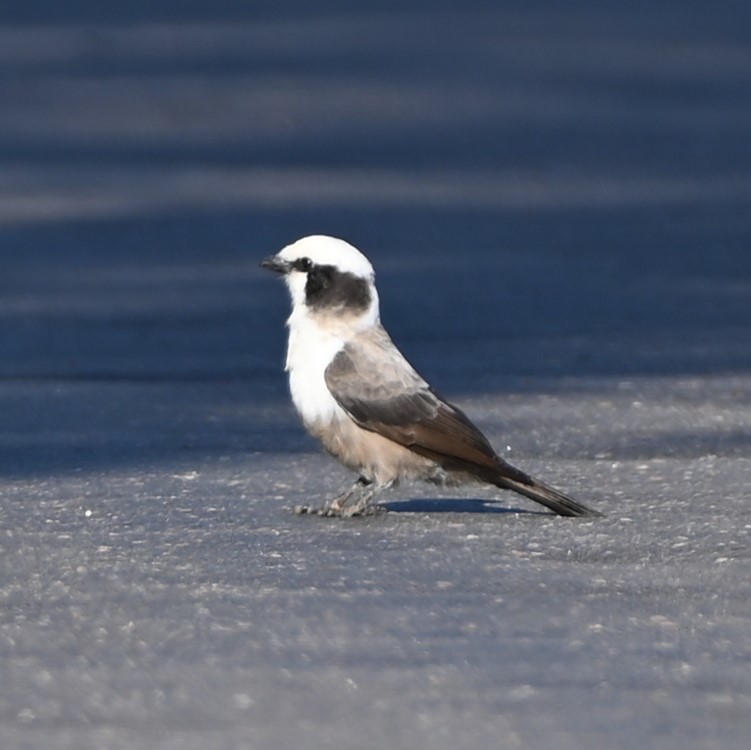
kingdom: Animalia
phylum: Chordata
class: Aves
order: Passeriformes
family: Laniidae
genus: Eurocephalus
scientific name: Eurocephalus anguitimens
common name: Southern white-crowned shrike
